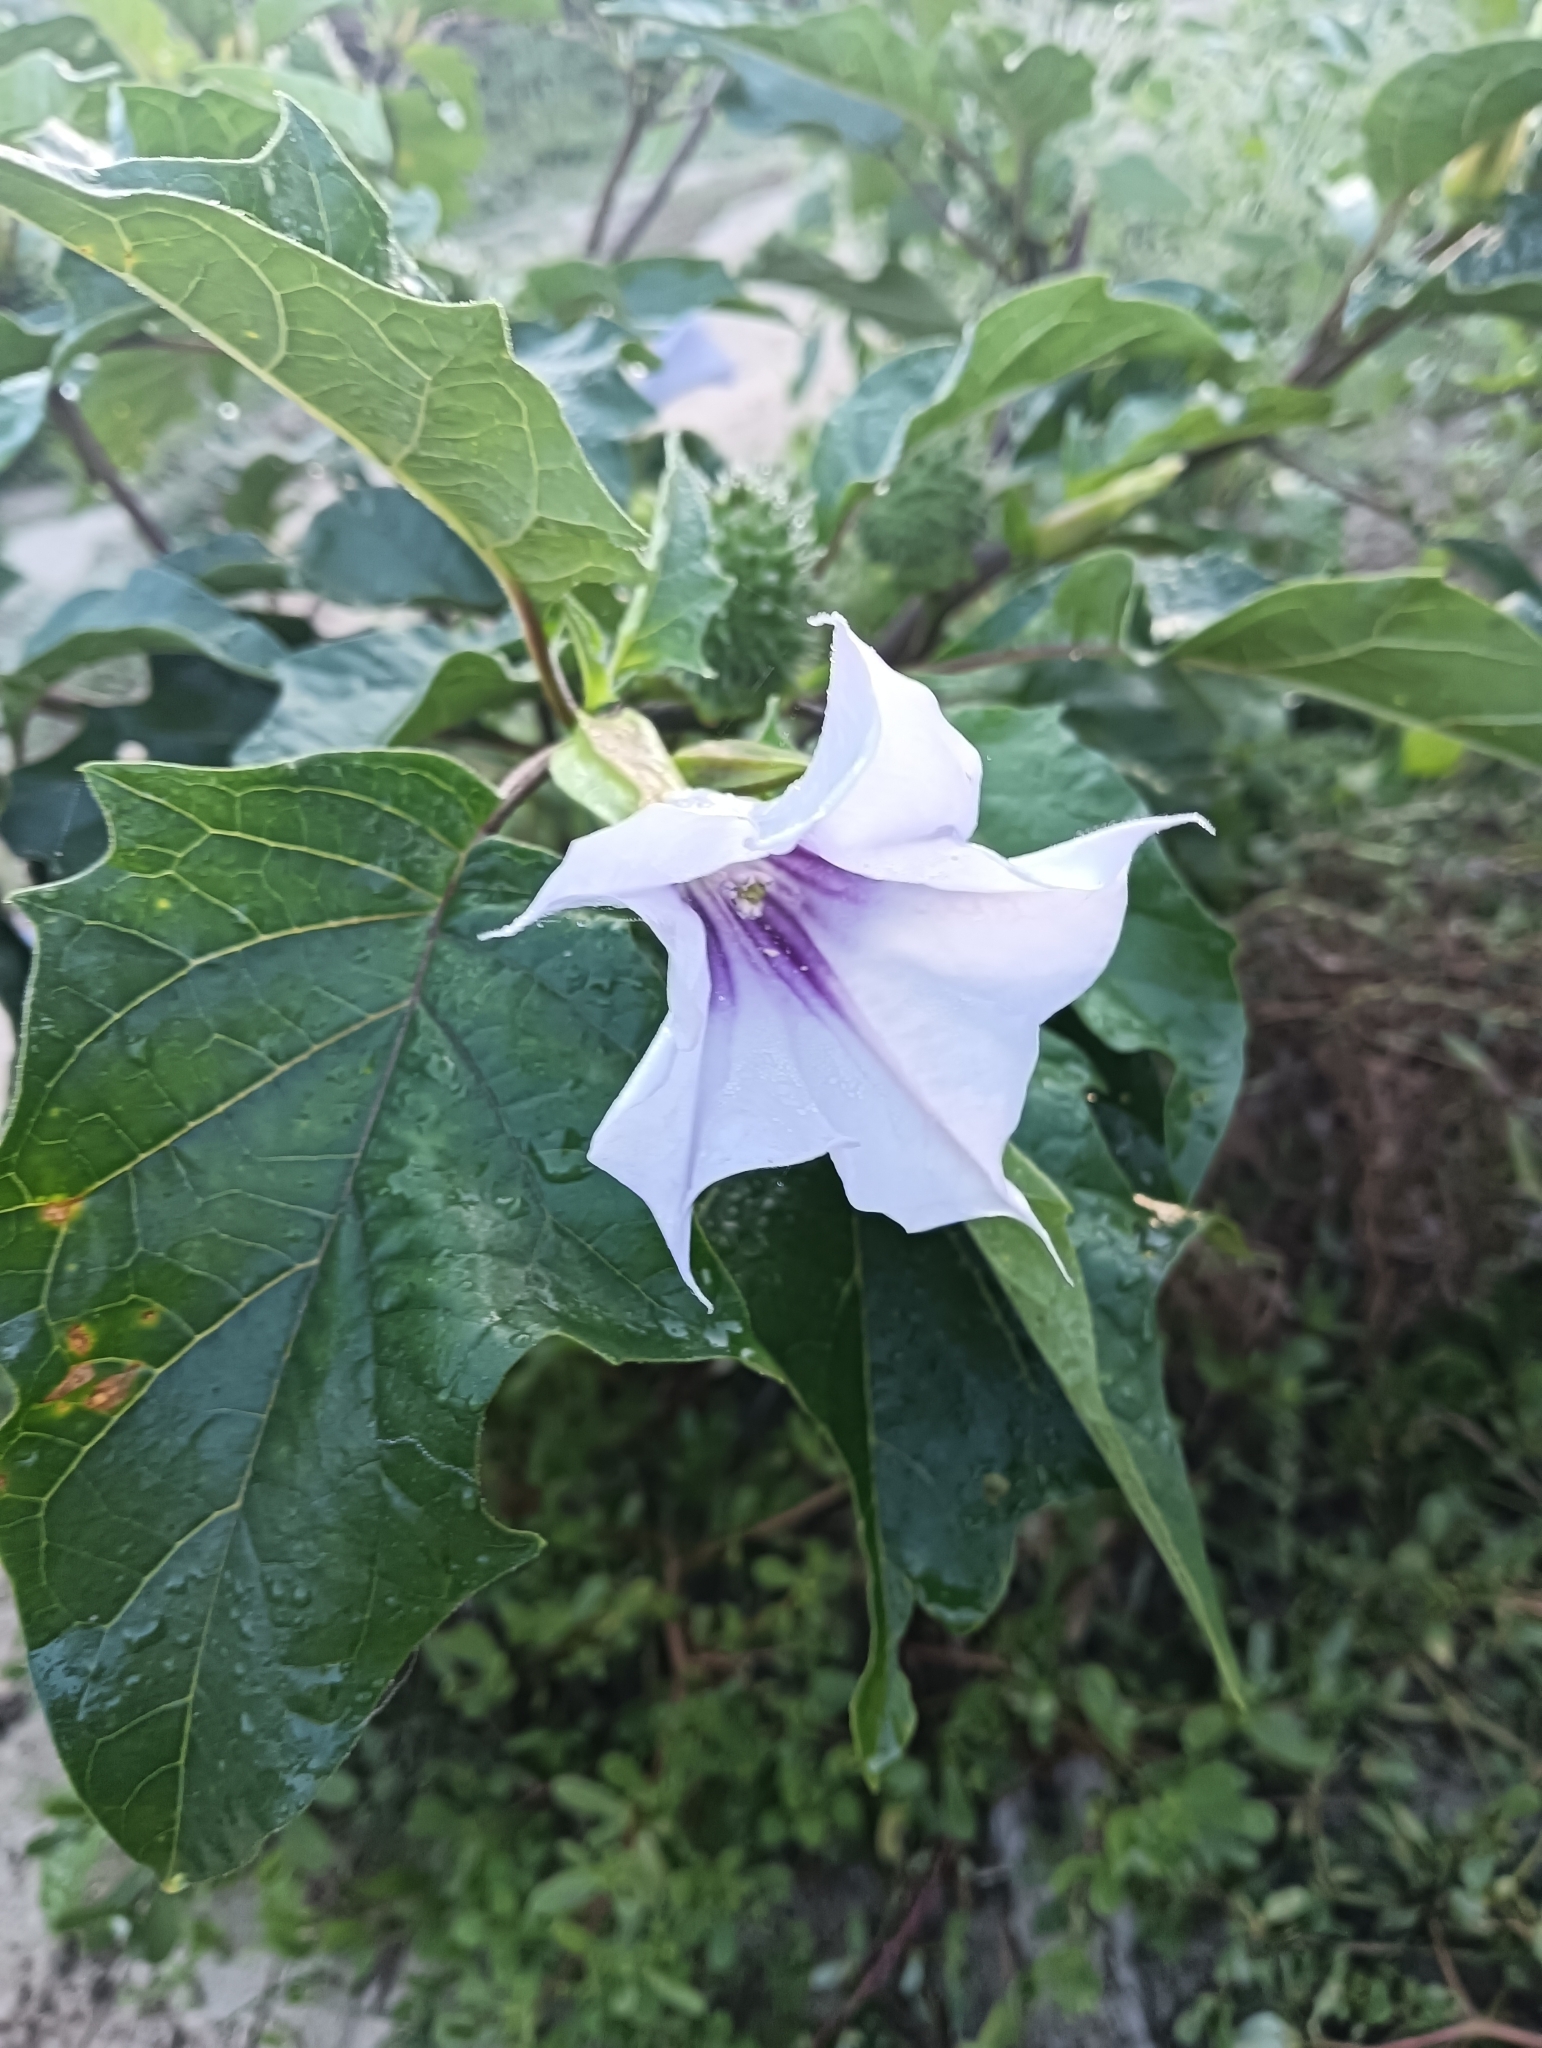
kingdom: Plantae
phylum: Tracheophyta
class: Magnoliopsida
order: Solanales
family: Solanaceae
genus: Datura
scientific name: Datura stramonium
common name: Thorn-apple
